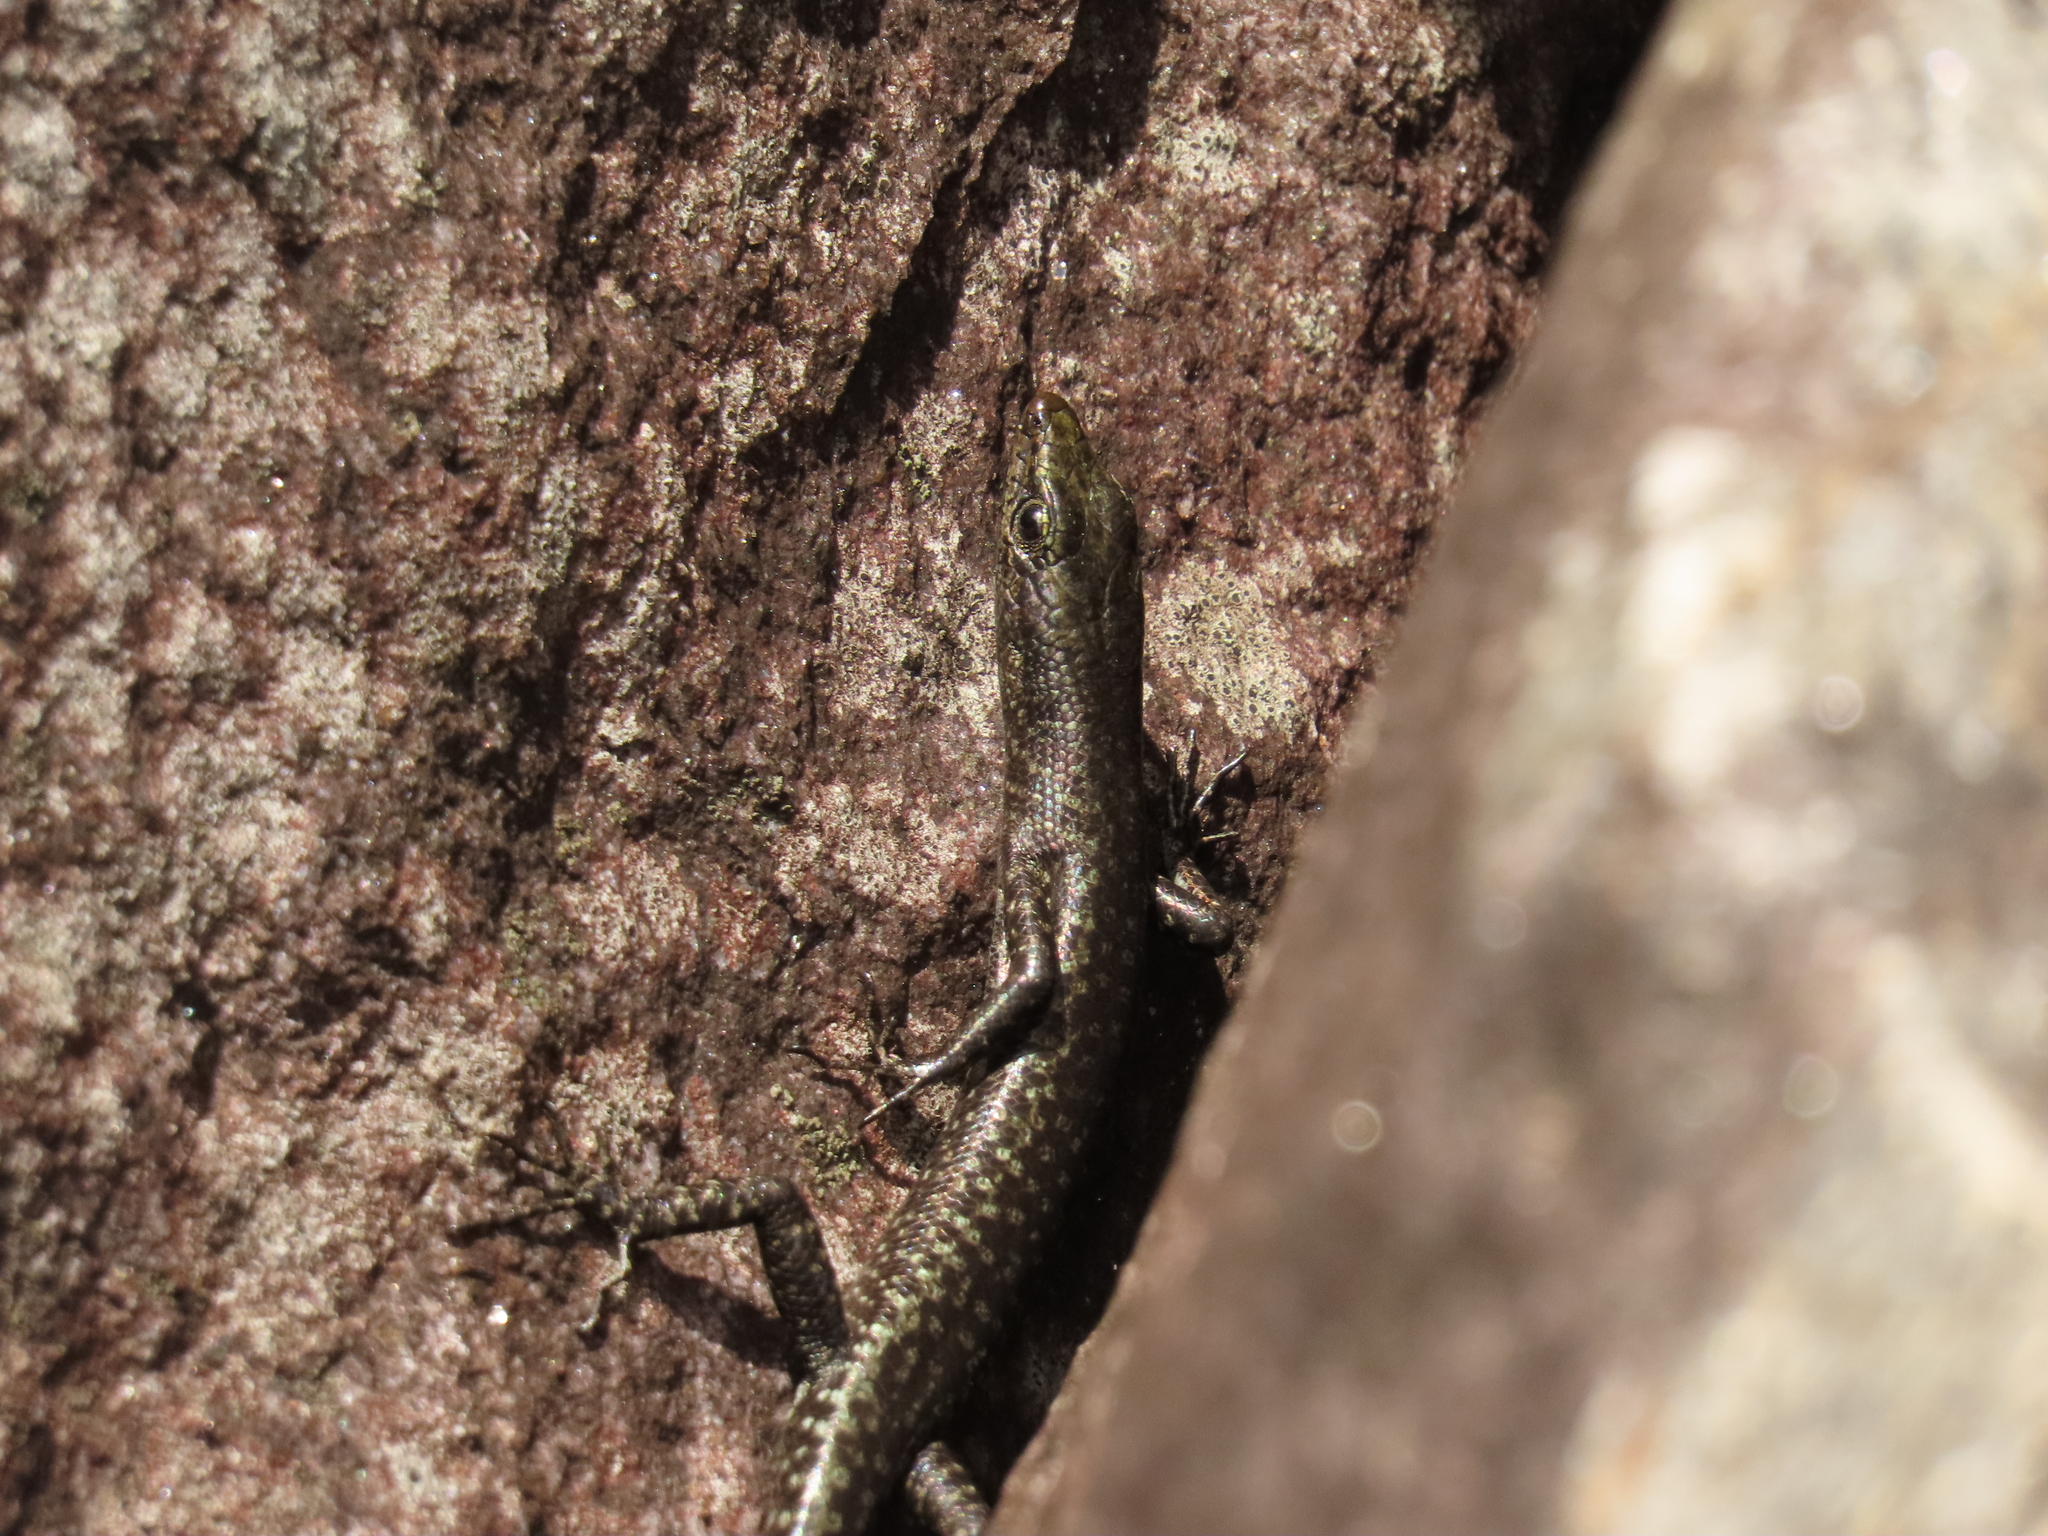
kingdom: Animalia
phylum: Chordata
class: Squamata
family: Scincidae
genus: Cryptoblepharus
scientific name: Cryptoblepharus litoralis
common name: Coastal snake-eyed skink
